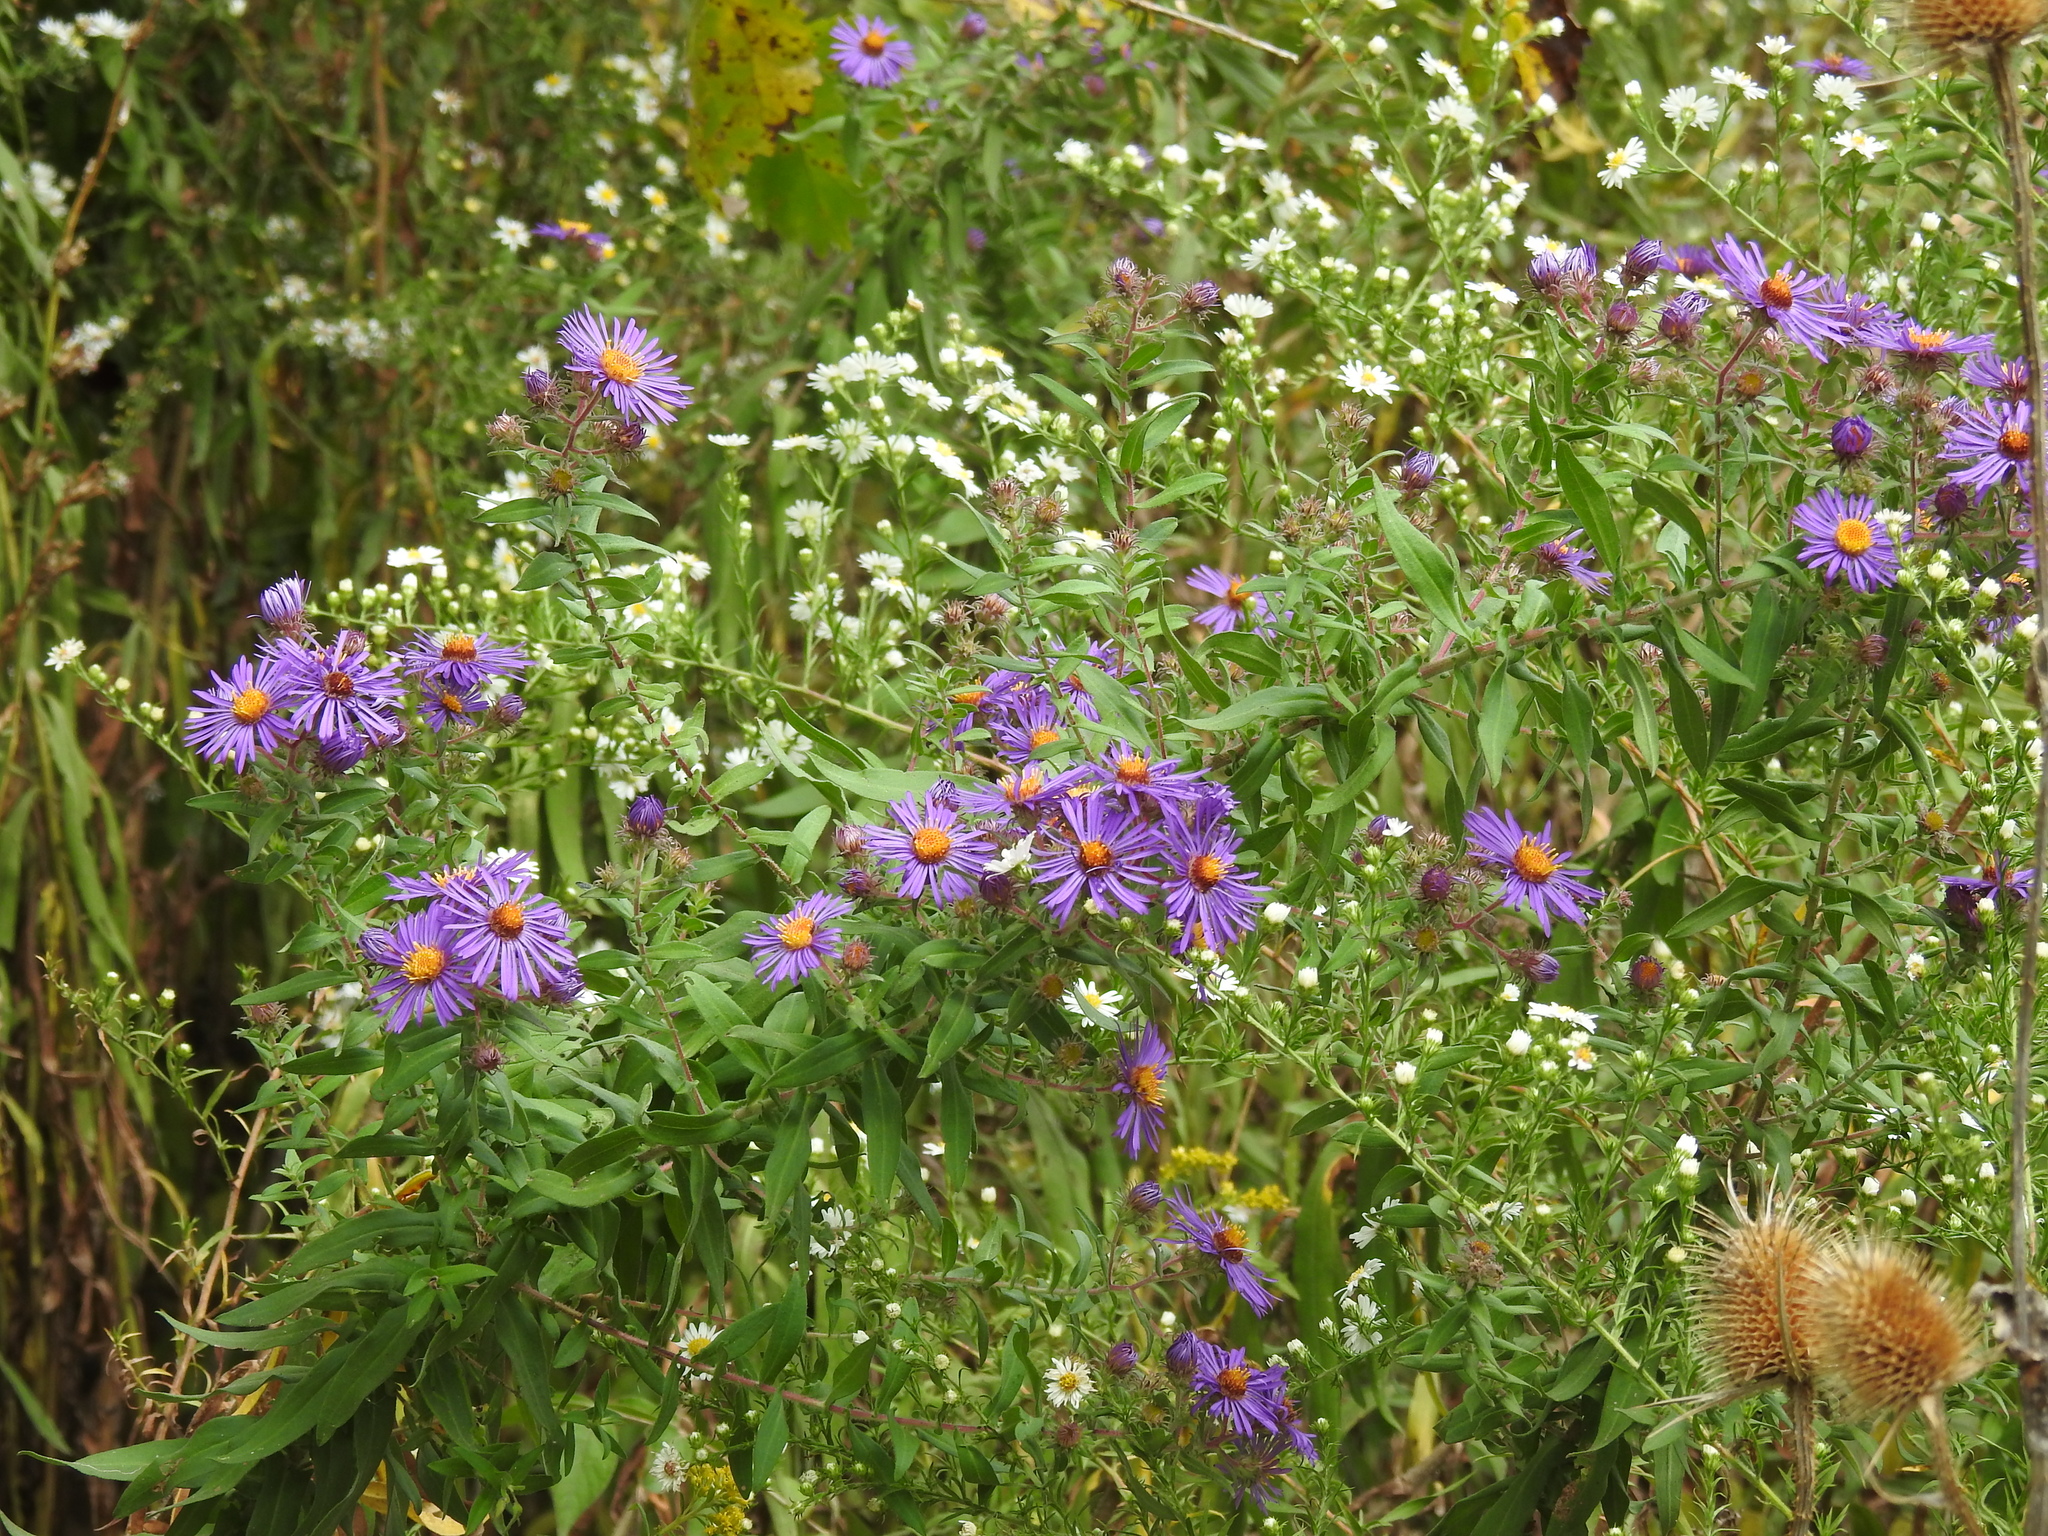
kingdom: Plantae
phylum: Tracheophyta
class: Magnoliopsida
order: Asterales
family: Asteraceae
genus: Symphyotrichum
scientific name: Symphyotrichum novae-angliae
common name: Michaelmas daisy
